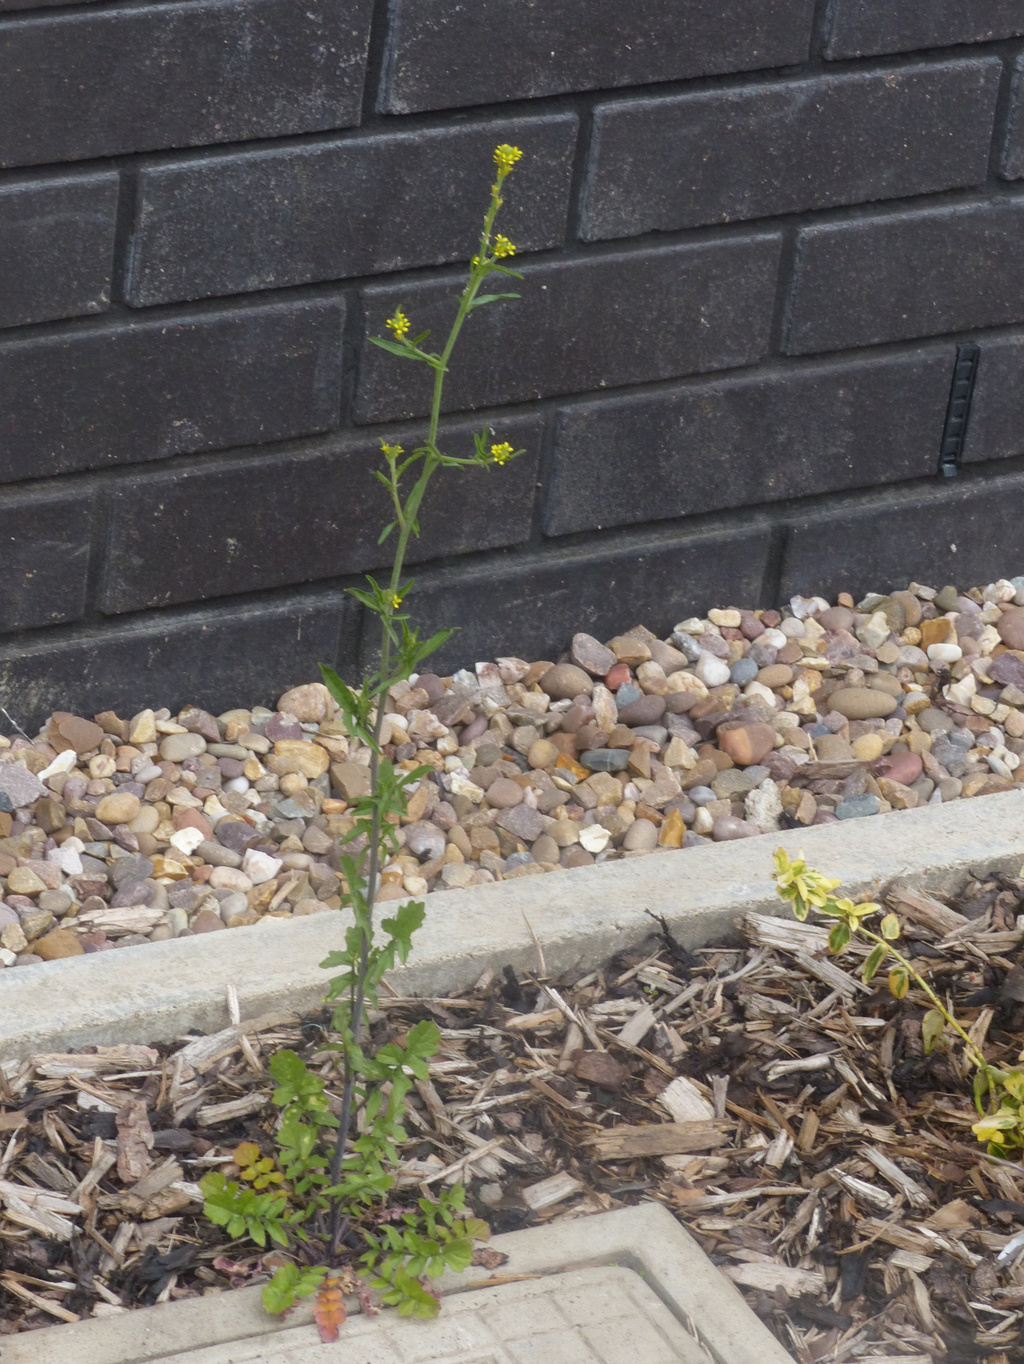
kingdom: Plantae
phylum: Tracheophyta
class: Magnoliopsida
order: Brassicales
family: Brassicaceae
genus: Sisymbrium
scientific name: Sisymbrium officinale
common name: Hedge mustard
